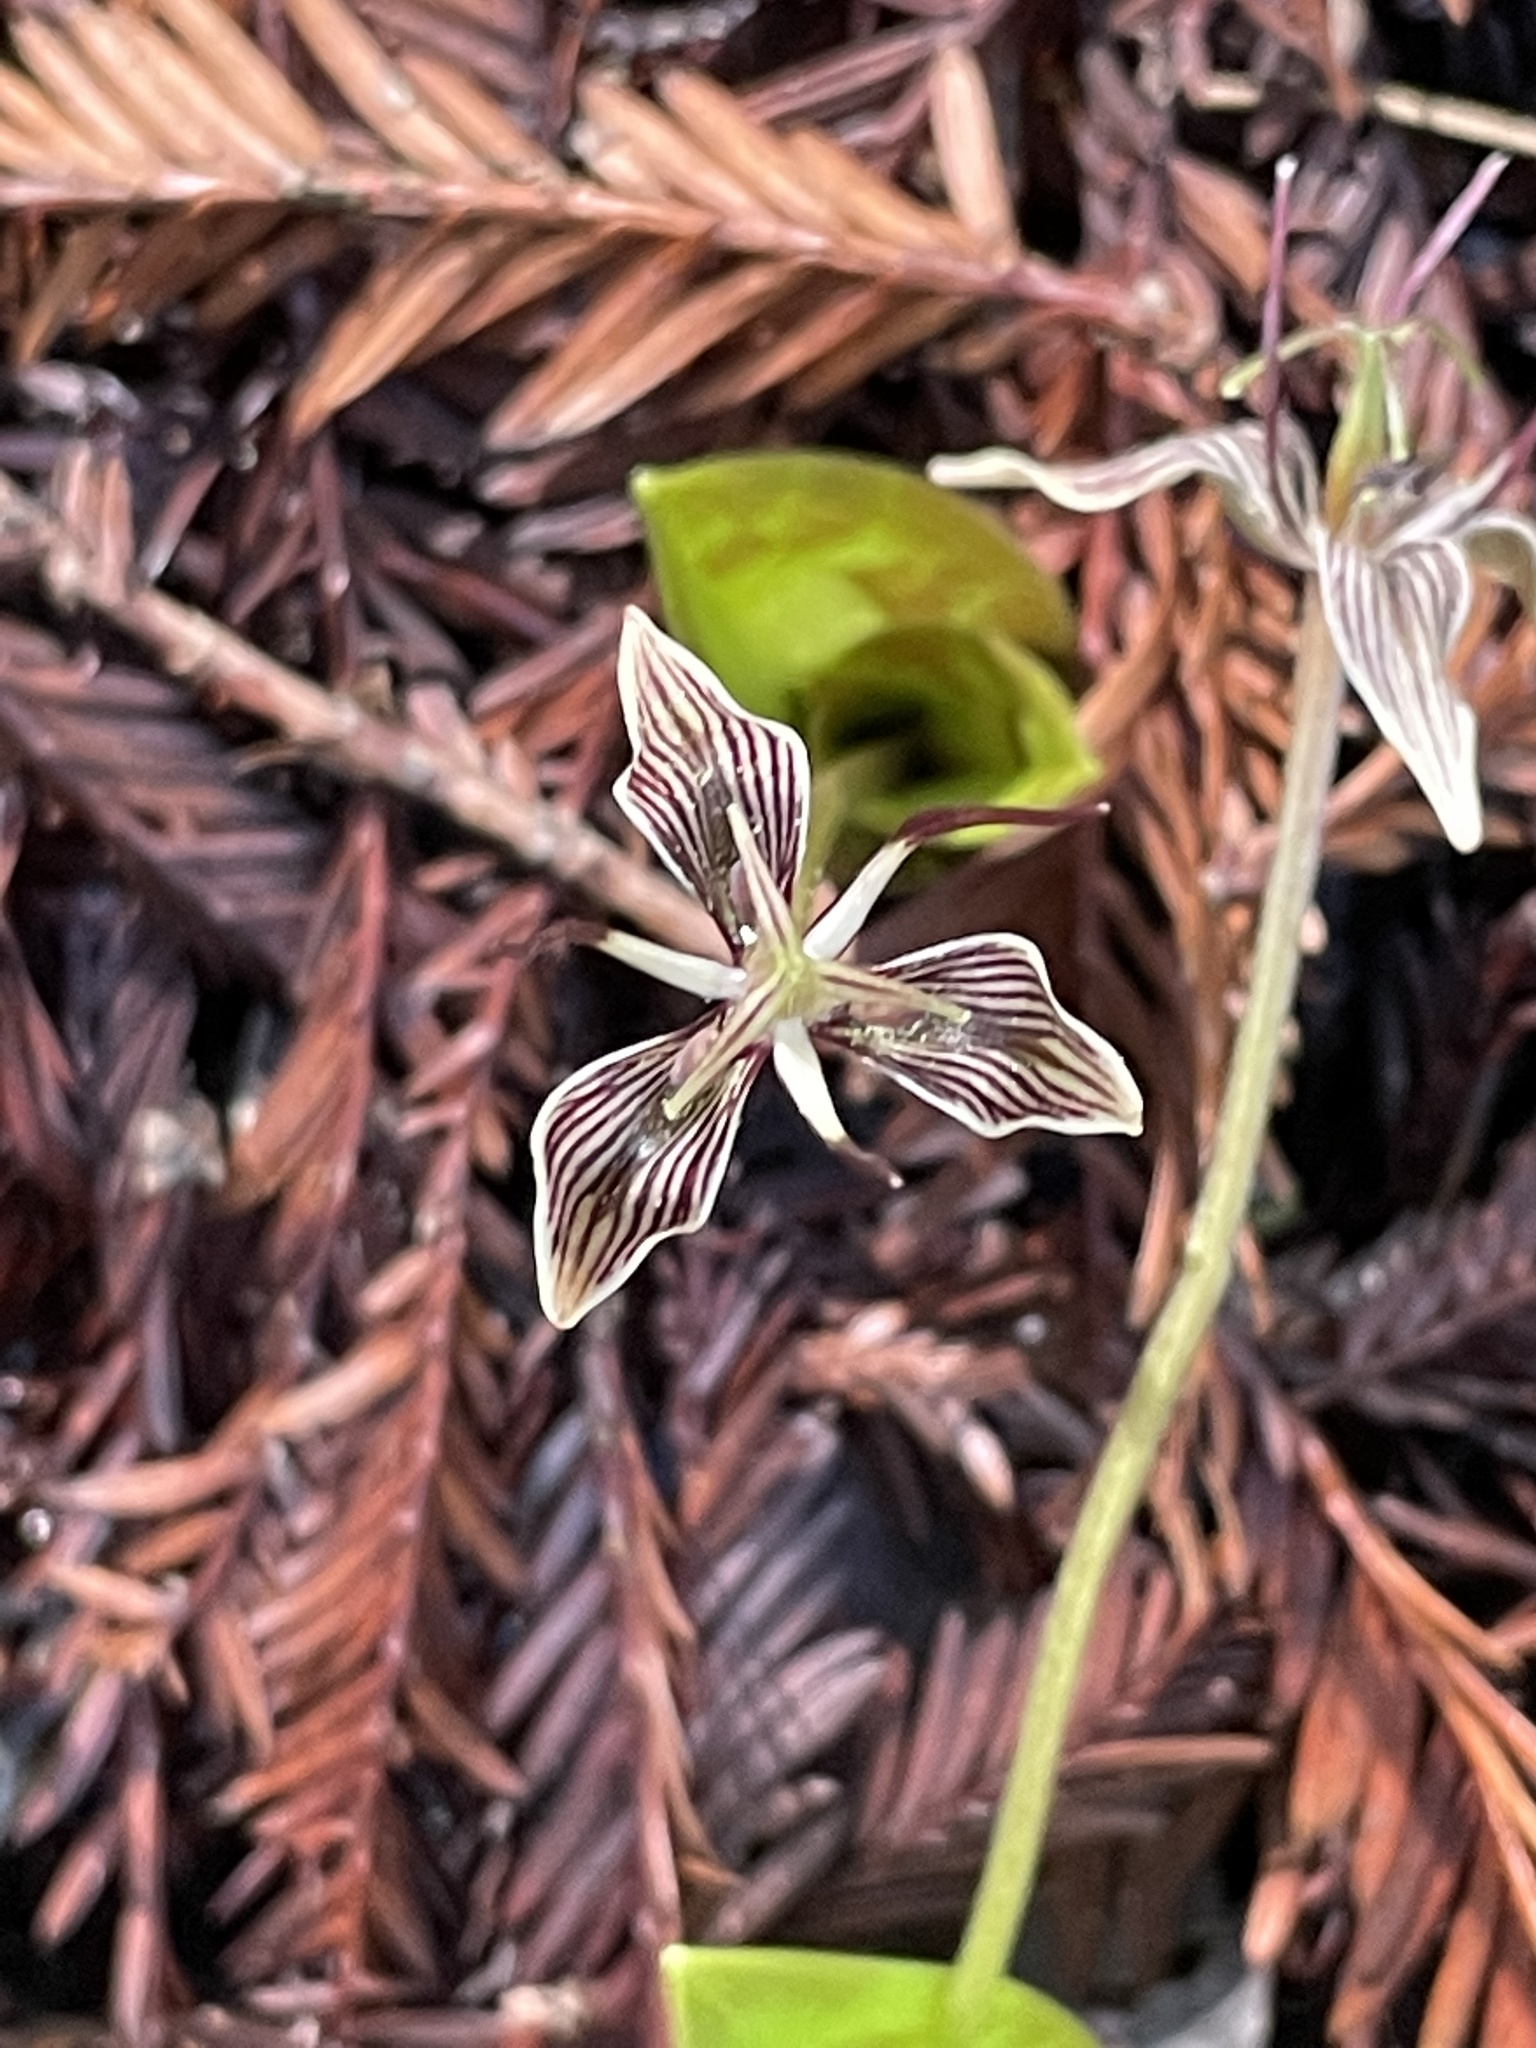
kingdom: Plantae
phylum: Tracheophyta
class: Liliopsida
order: Liliales
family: Liliaceae
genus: Scoliopus
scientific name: Scoliopus bigelovii
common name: Foetid adder's-tongue
